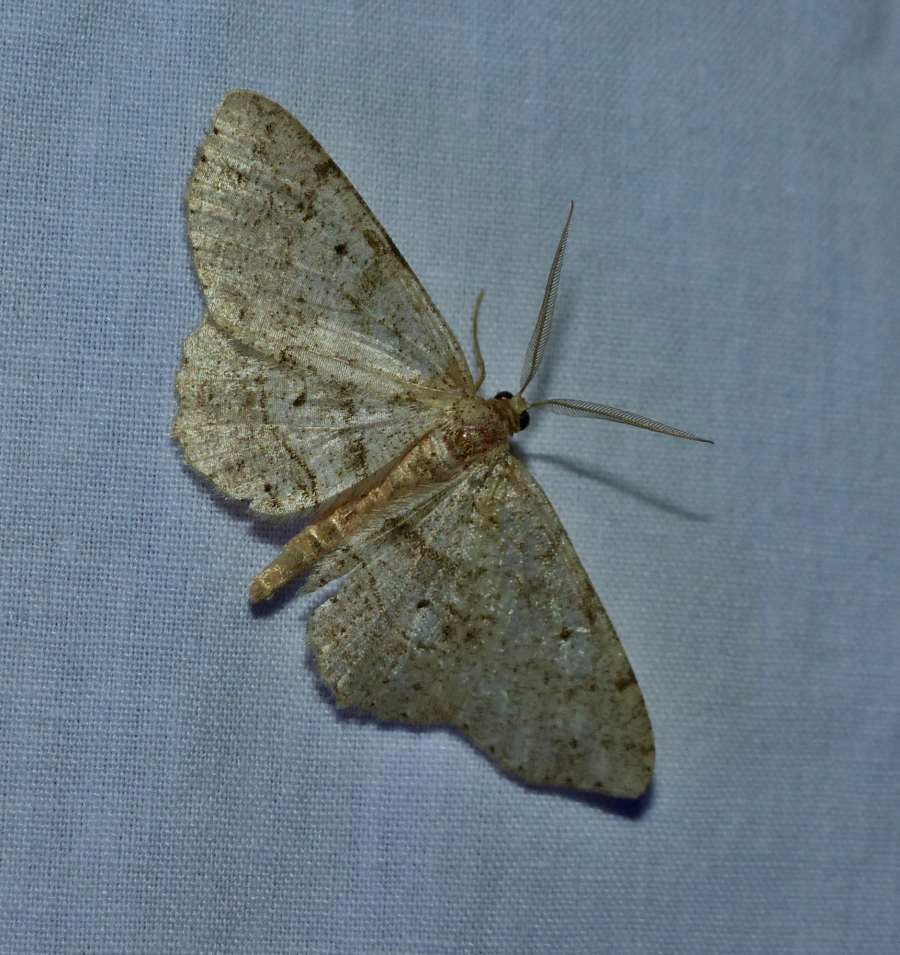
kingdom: Animalia
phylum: Arthropoda
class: Insecta
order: Lepidoptera
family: Geometridae
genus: Melanolophia
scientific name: Melanolophia signataria
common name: Signate melanolophia
